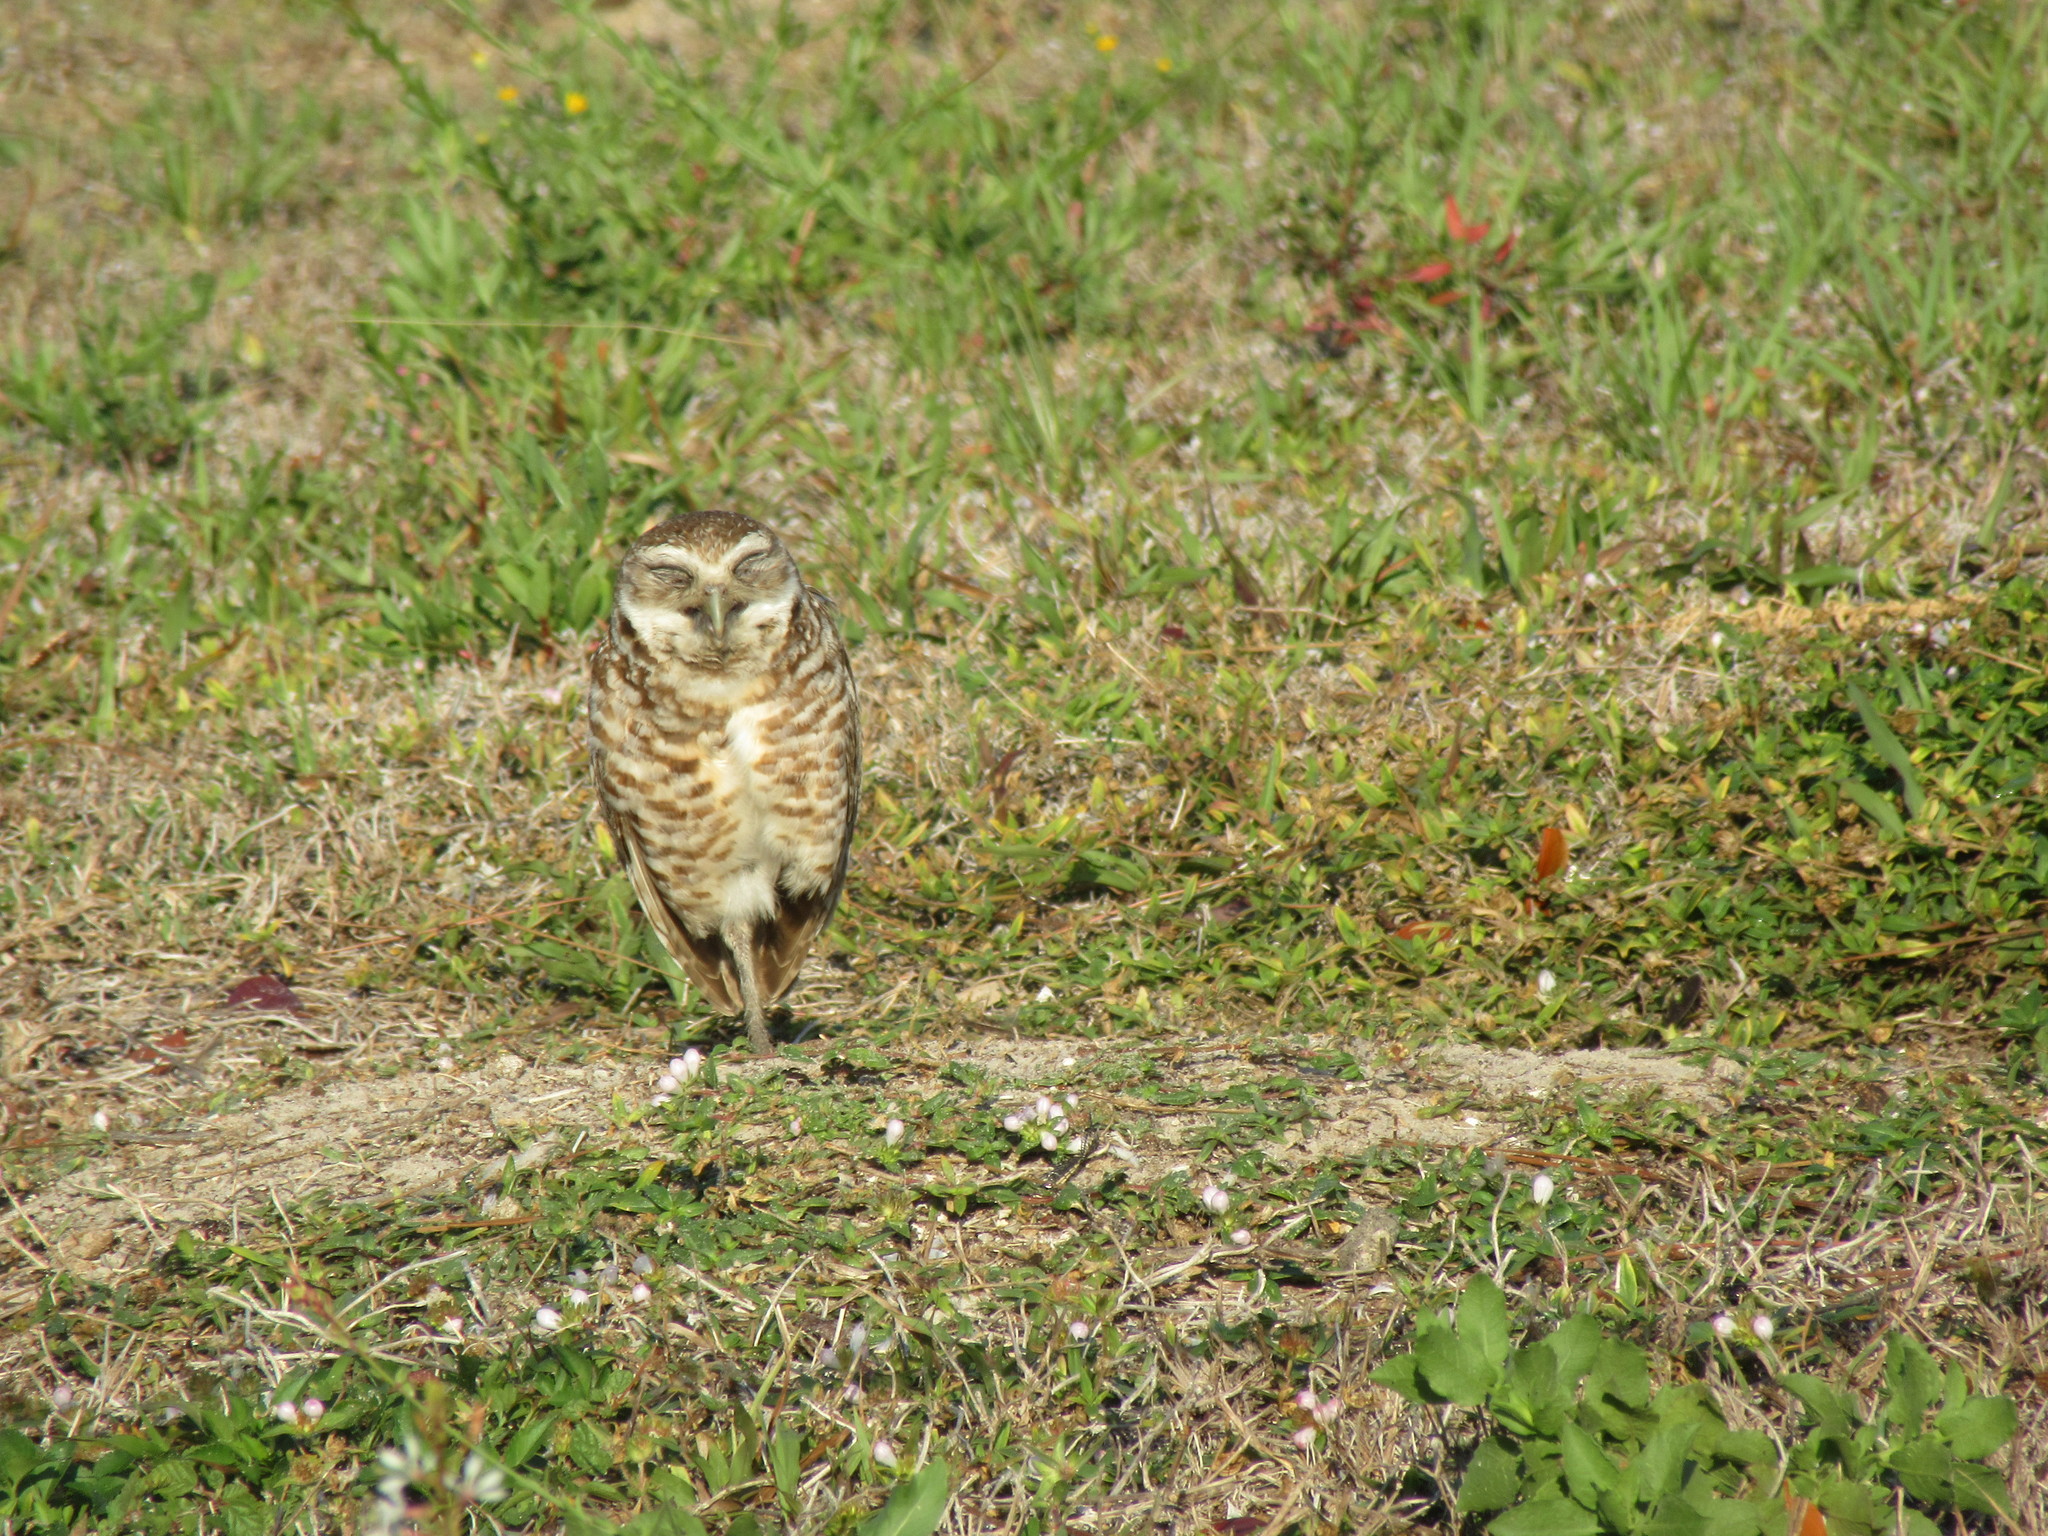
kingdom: Animalia
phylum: Chordata
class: Aves
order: Strigiformes
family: Strigidae
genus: Athene
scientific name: Athene cunicularia
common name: Burrowing owl
